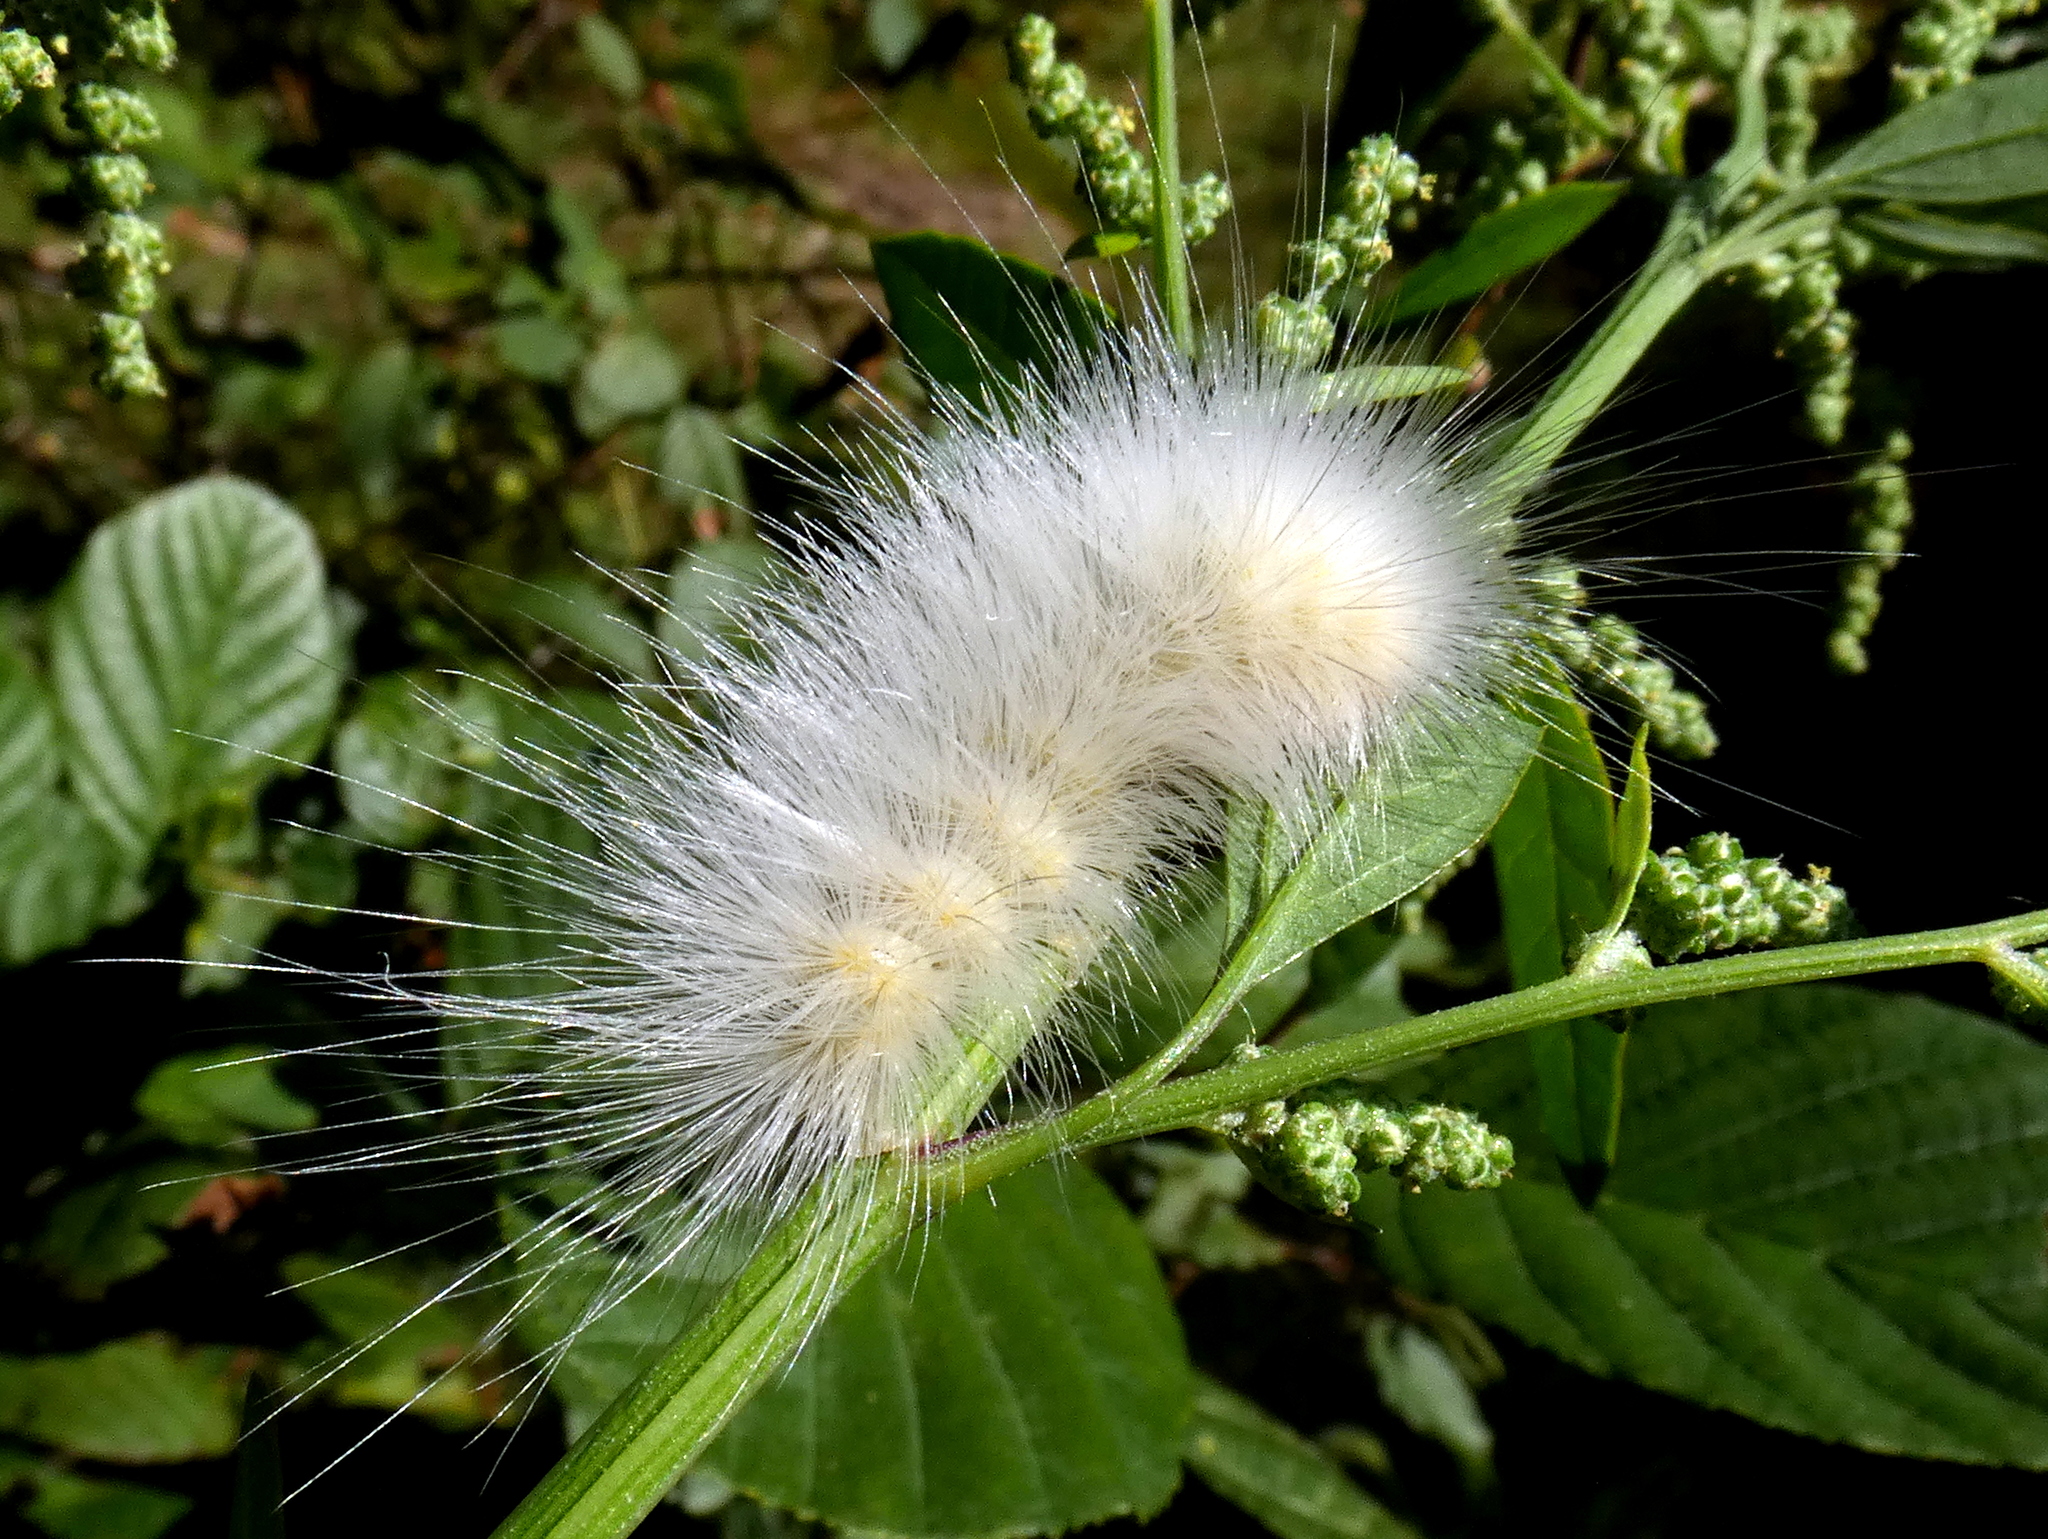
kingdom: Animalia
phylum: Arthropoda
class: Insecta
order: Lepidoptera
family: Erebidae
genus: Spilosoma
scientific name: Spilosoma virginica
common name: Virginia tiger moth
